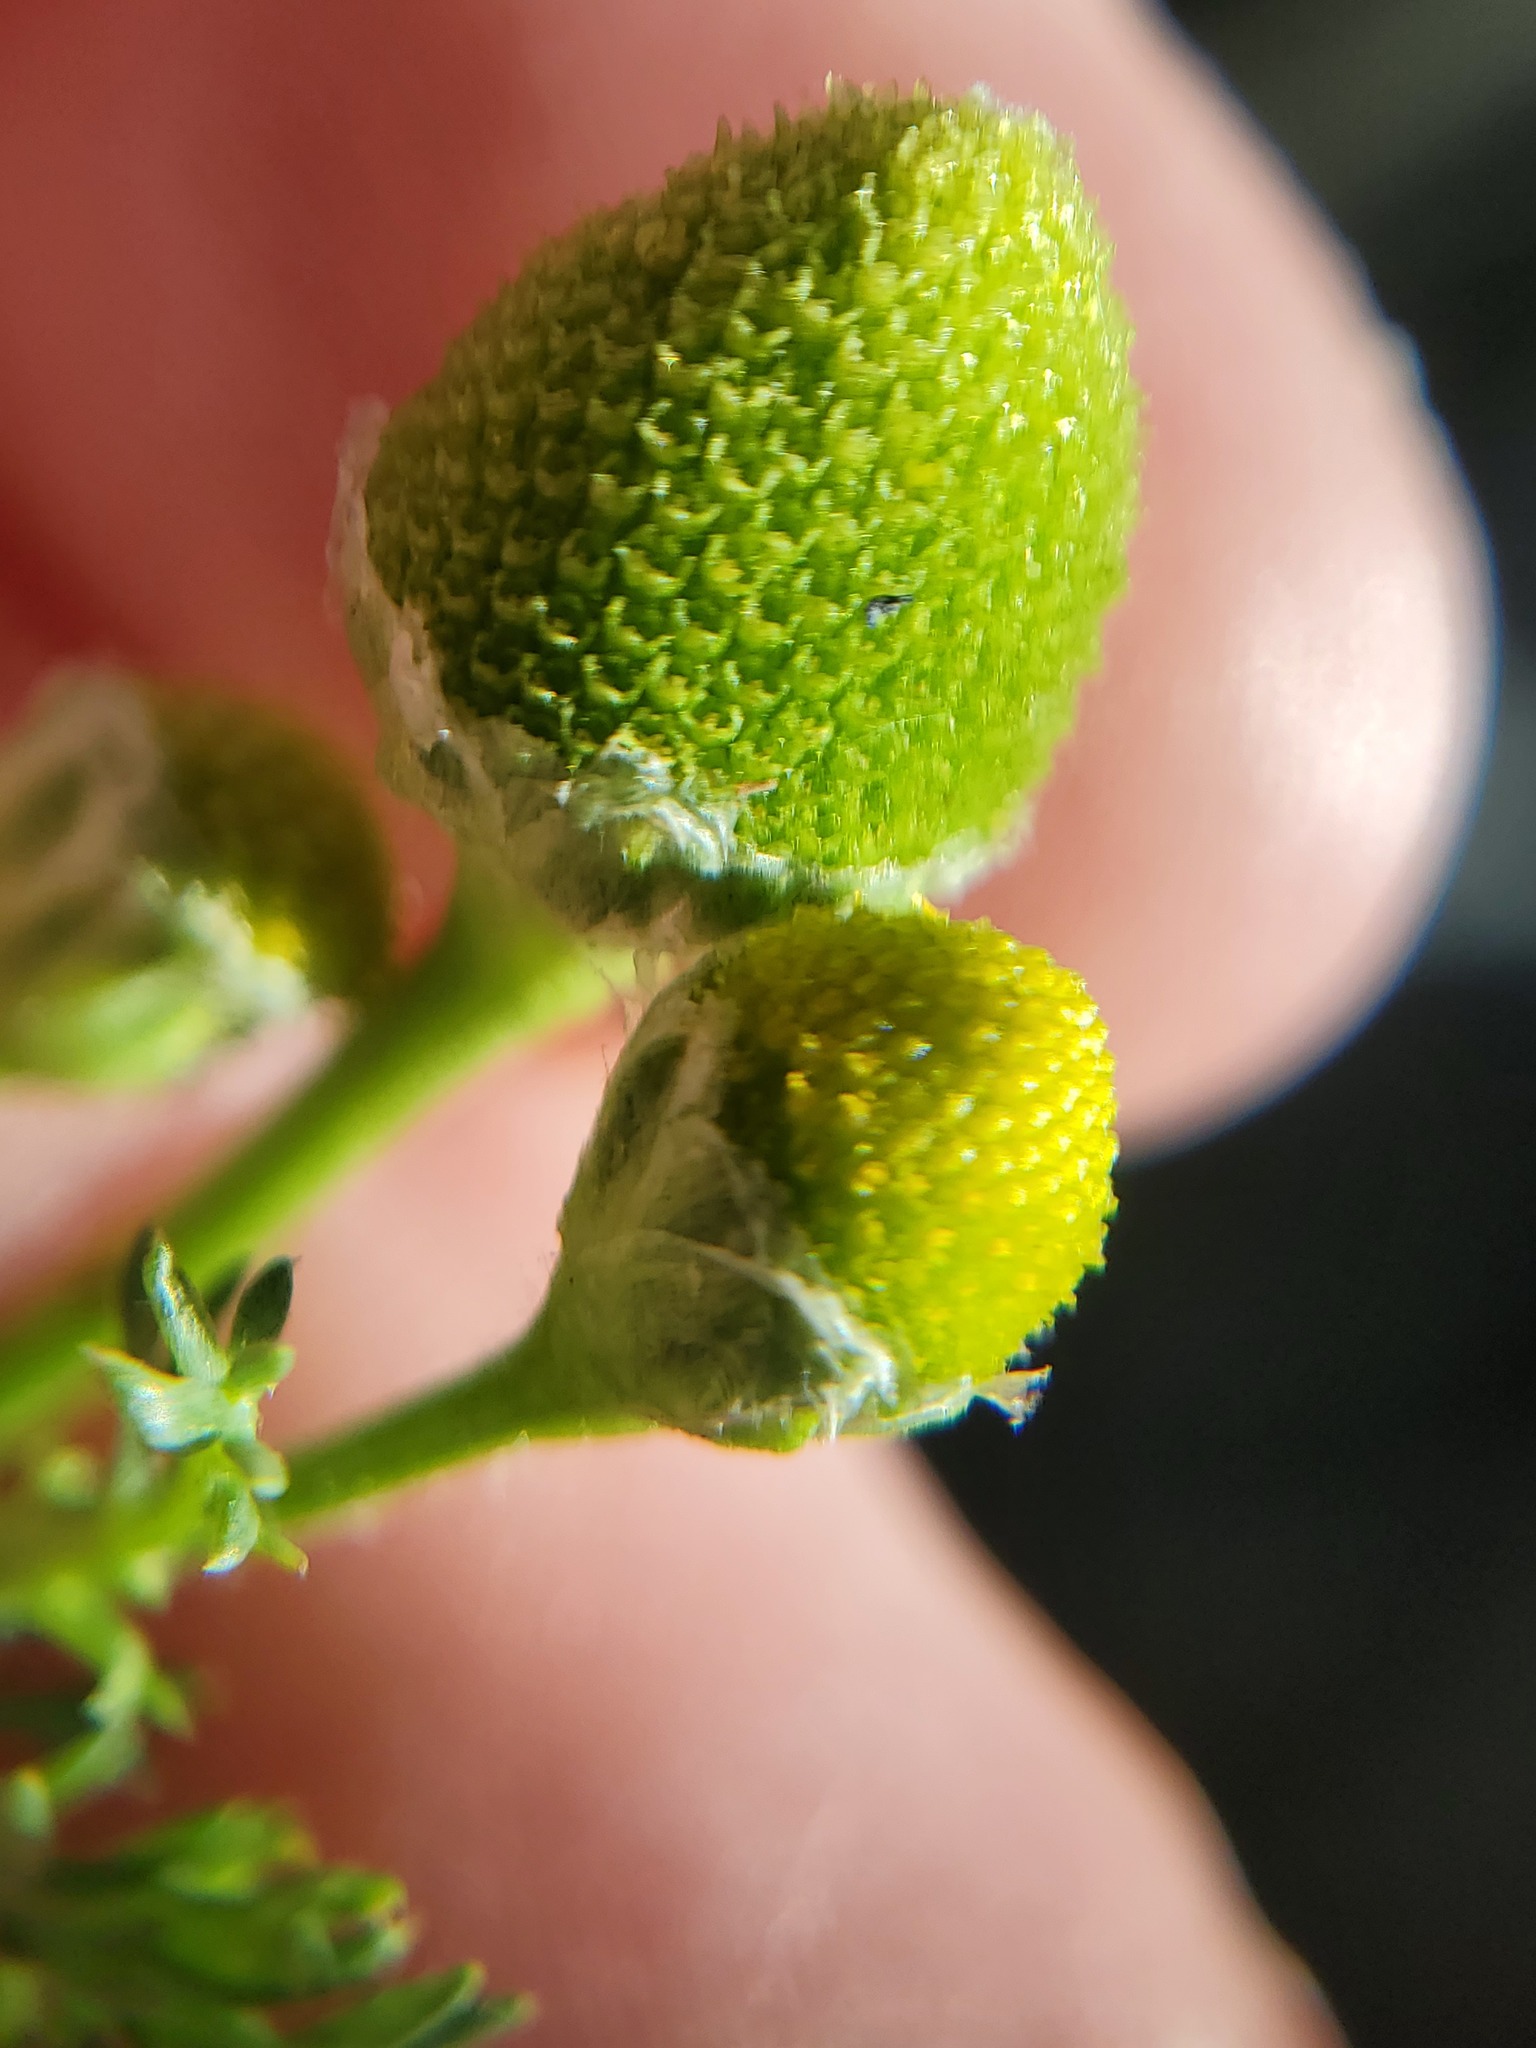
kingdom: Plantae
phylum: Tracheophyta
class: Magnoliopsida
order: Asterales
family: Asteraceae
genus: Matricaria
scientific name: Matricaria discoidea
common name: Disc mayweed
